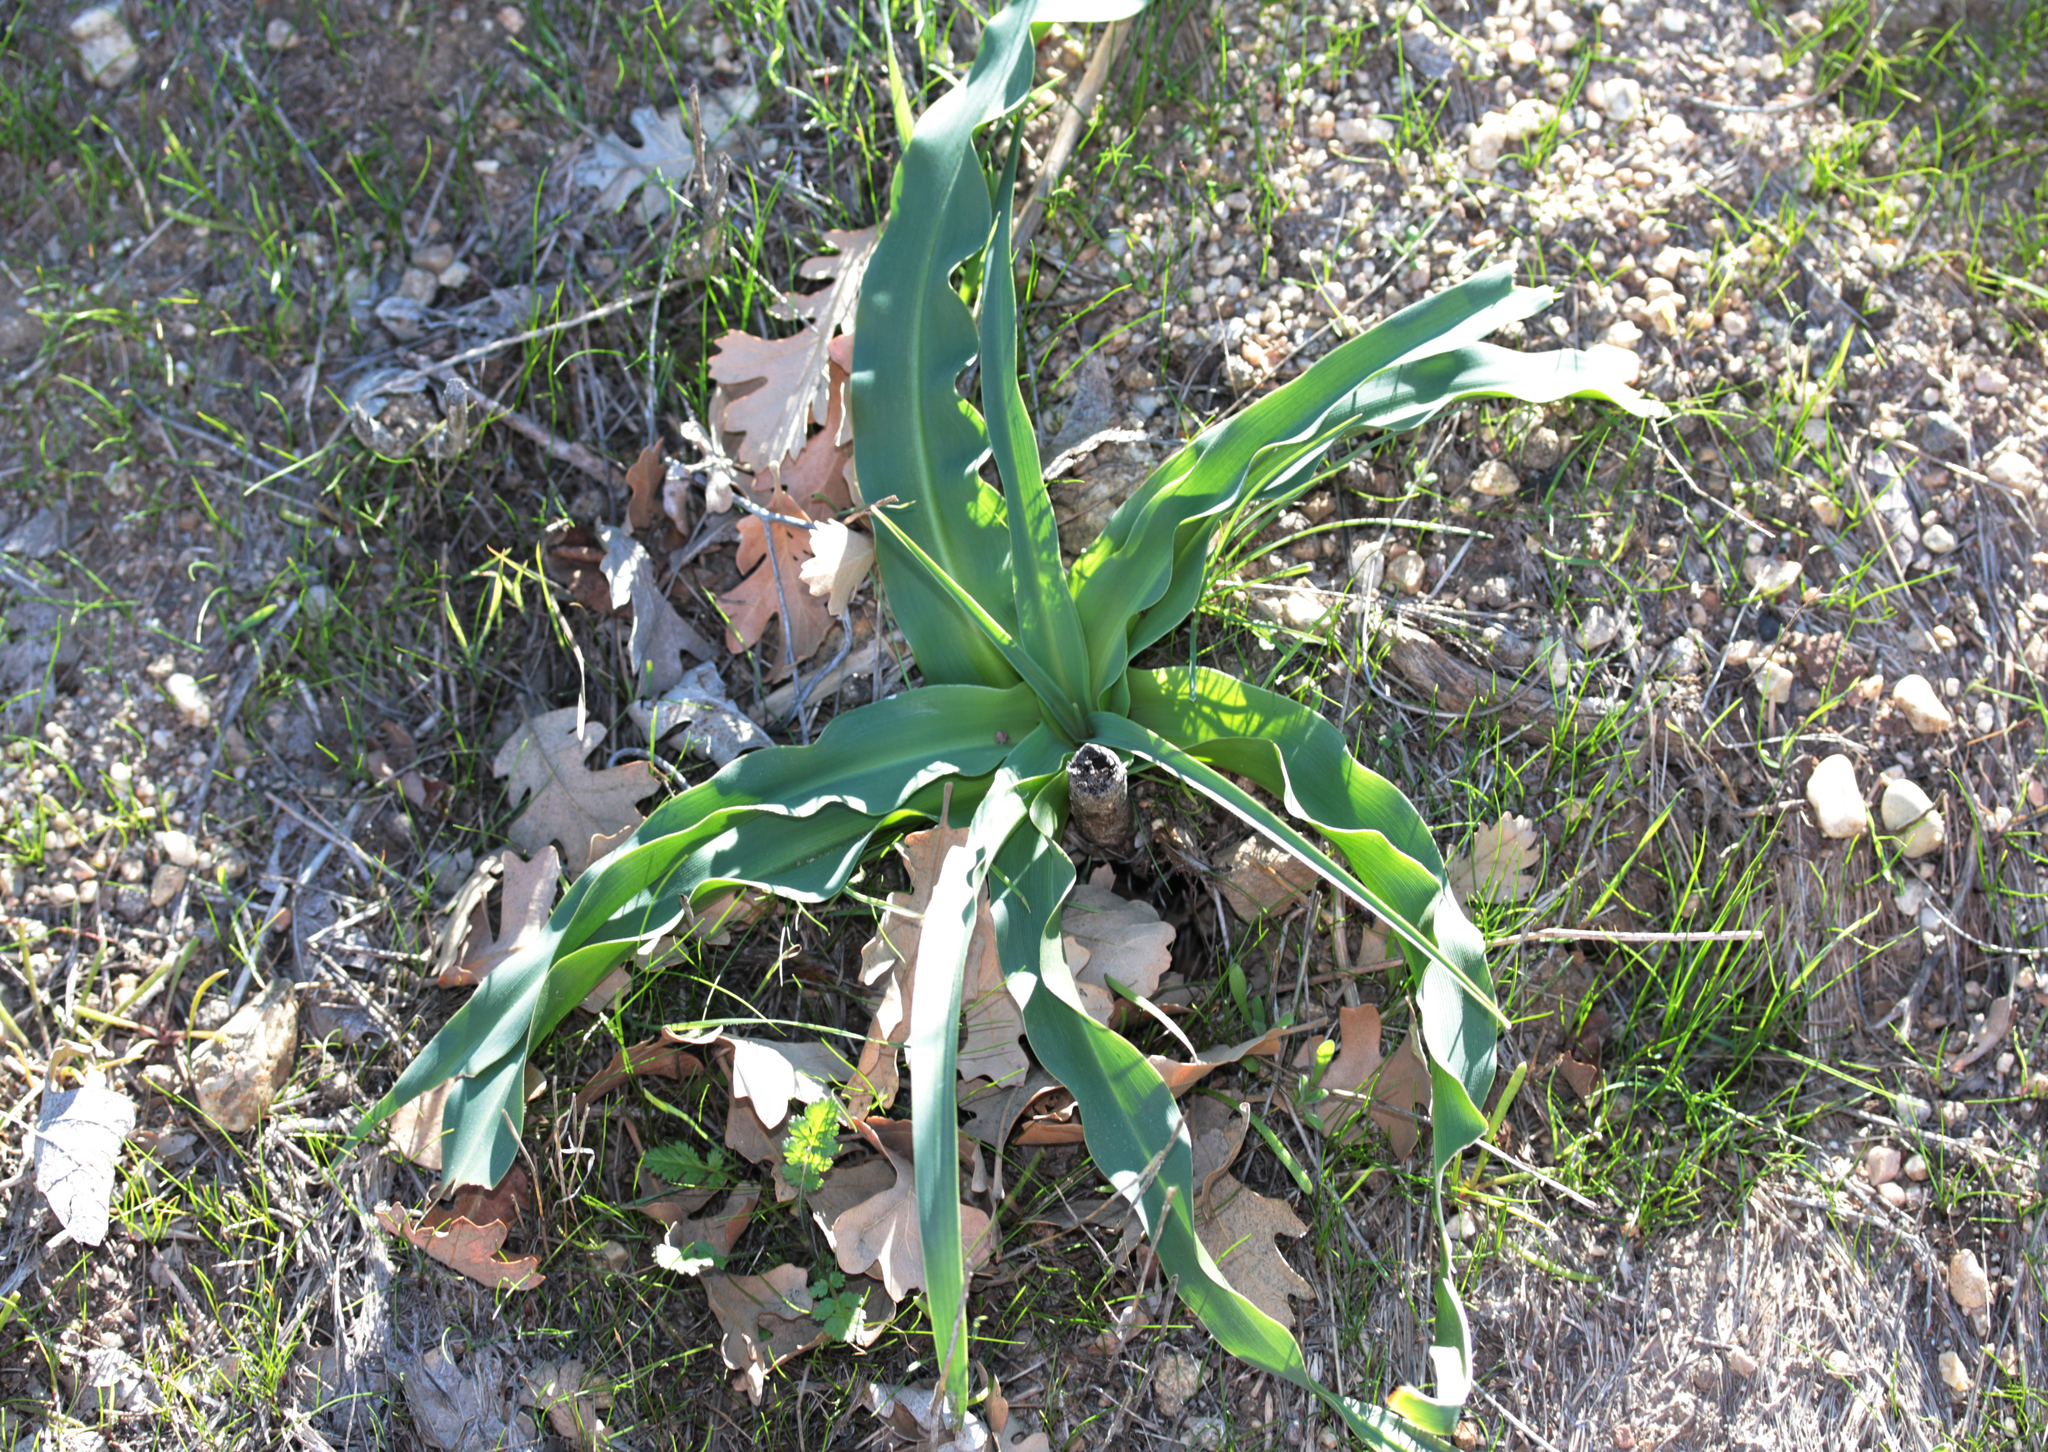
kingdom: Plantae
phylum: Tracheophyta
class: Liliopsida
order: Asparagales
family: Asparagaceae
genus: Chlorogalum
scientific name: Chlorogalum pomeridianum
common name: Amole
